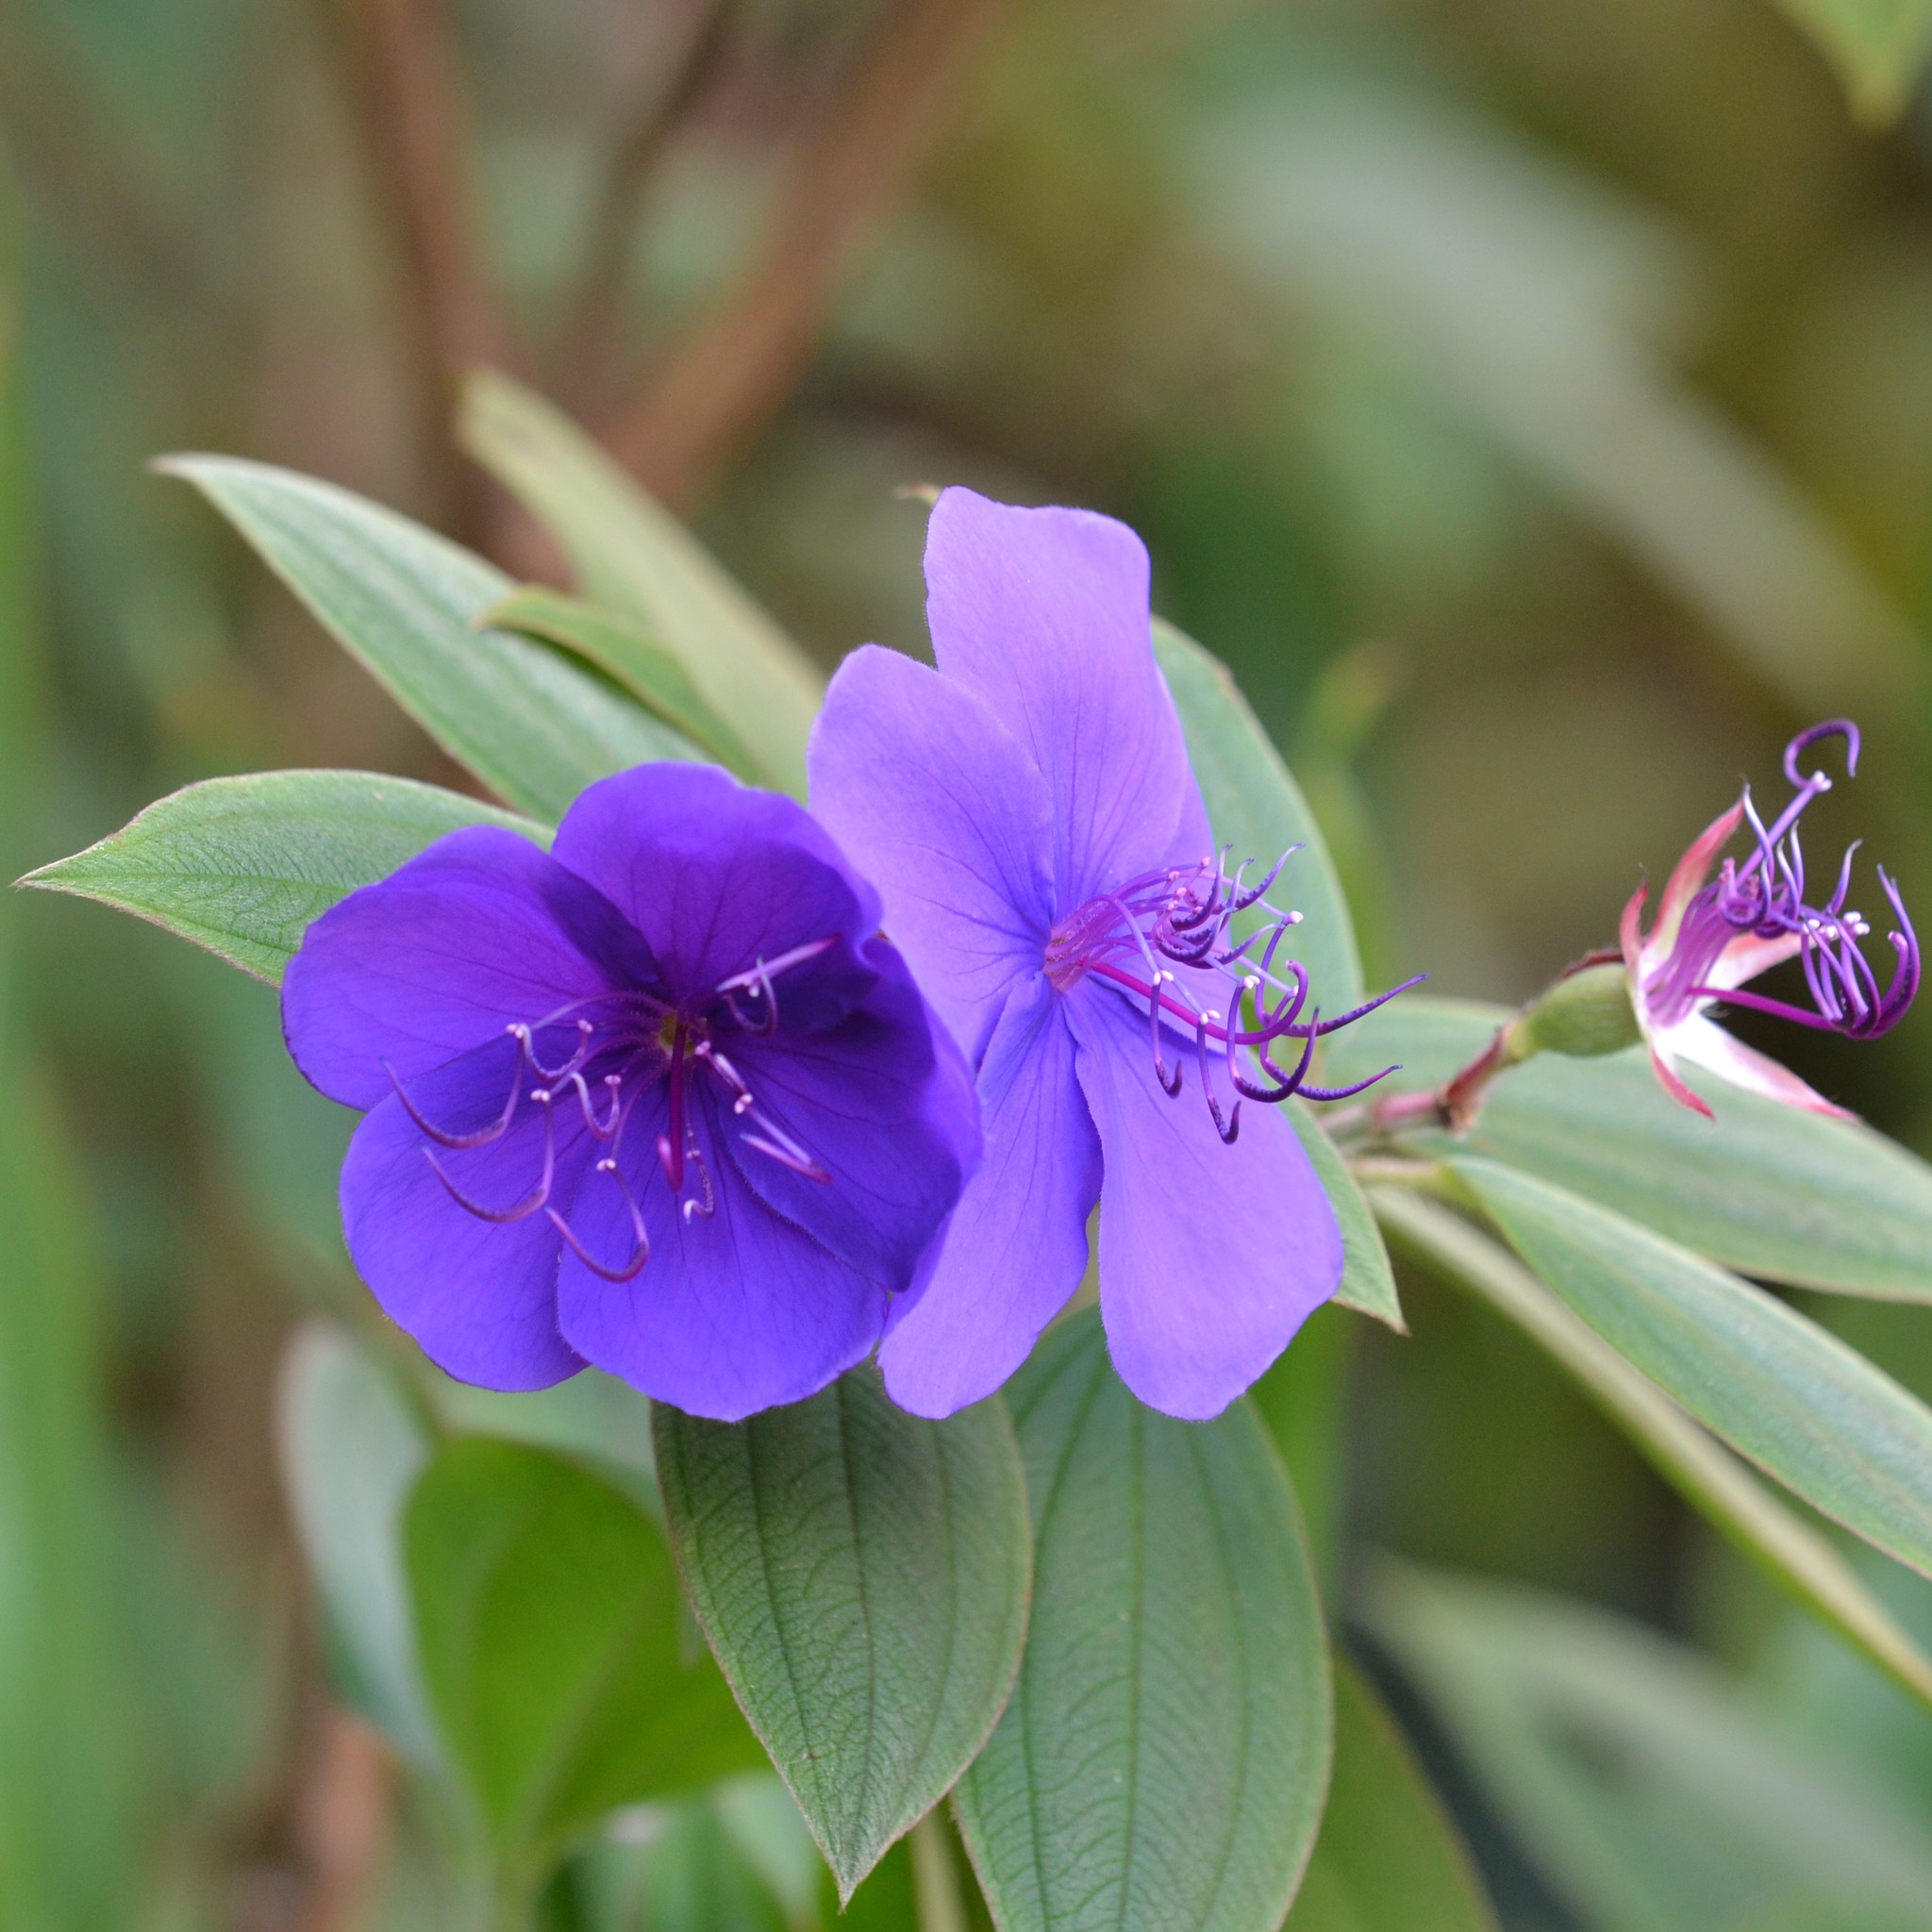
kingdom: Plantae
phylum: Tracheophyta
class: Magnoliopsida
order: Myrtales
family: Melastomataceae
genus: Pleroma
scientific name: Pleroma urvilleanum
